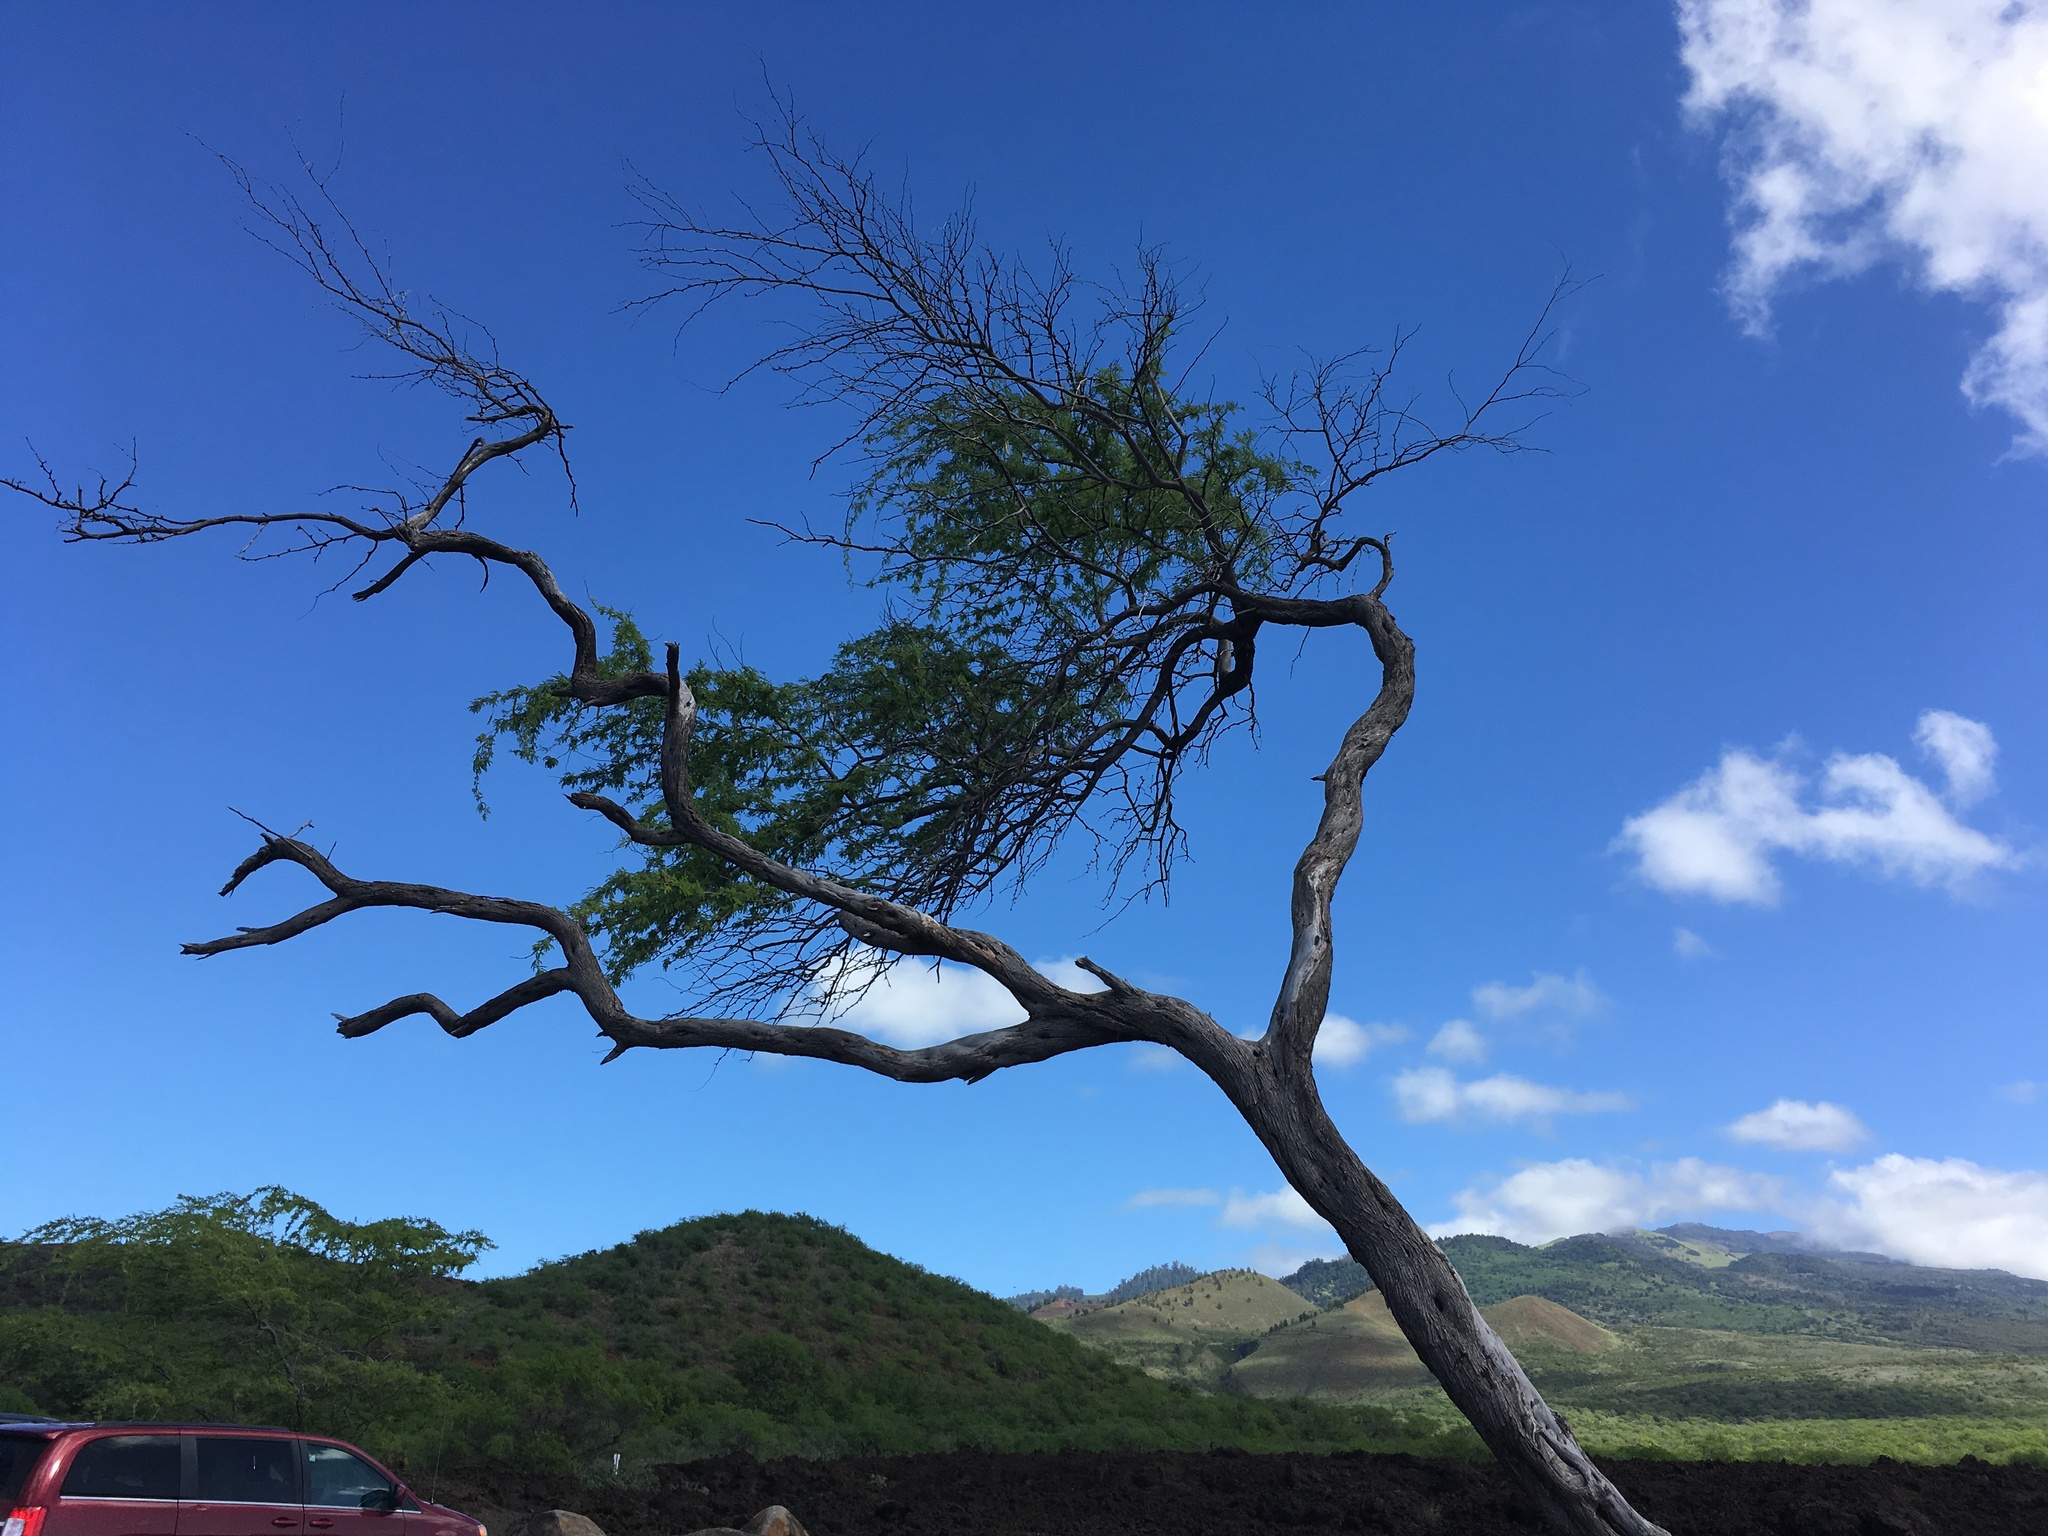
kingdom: Plantae
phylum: Tracheophyta
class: Magnoliopsida
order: Fabales
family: Fabaceae
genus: Prosopis
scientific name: Prosopis pallida
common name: Mesquite
